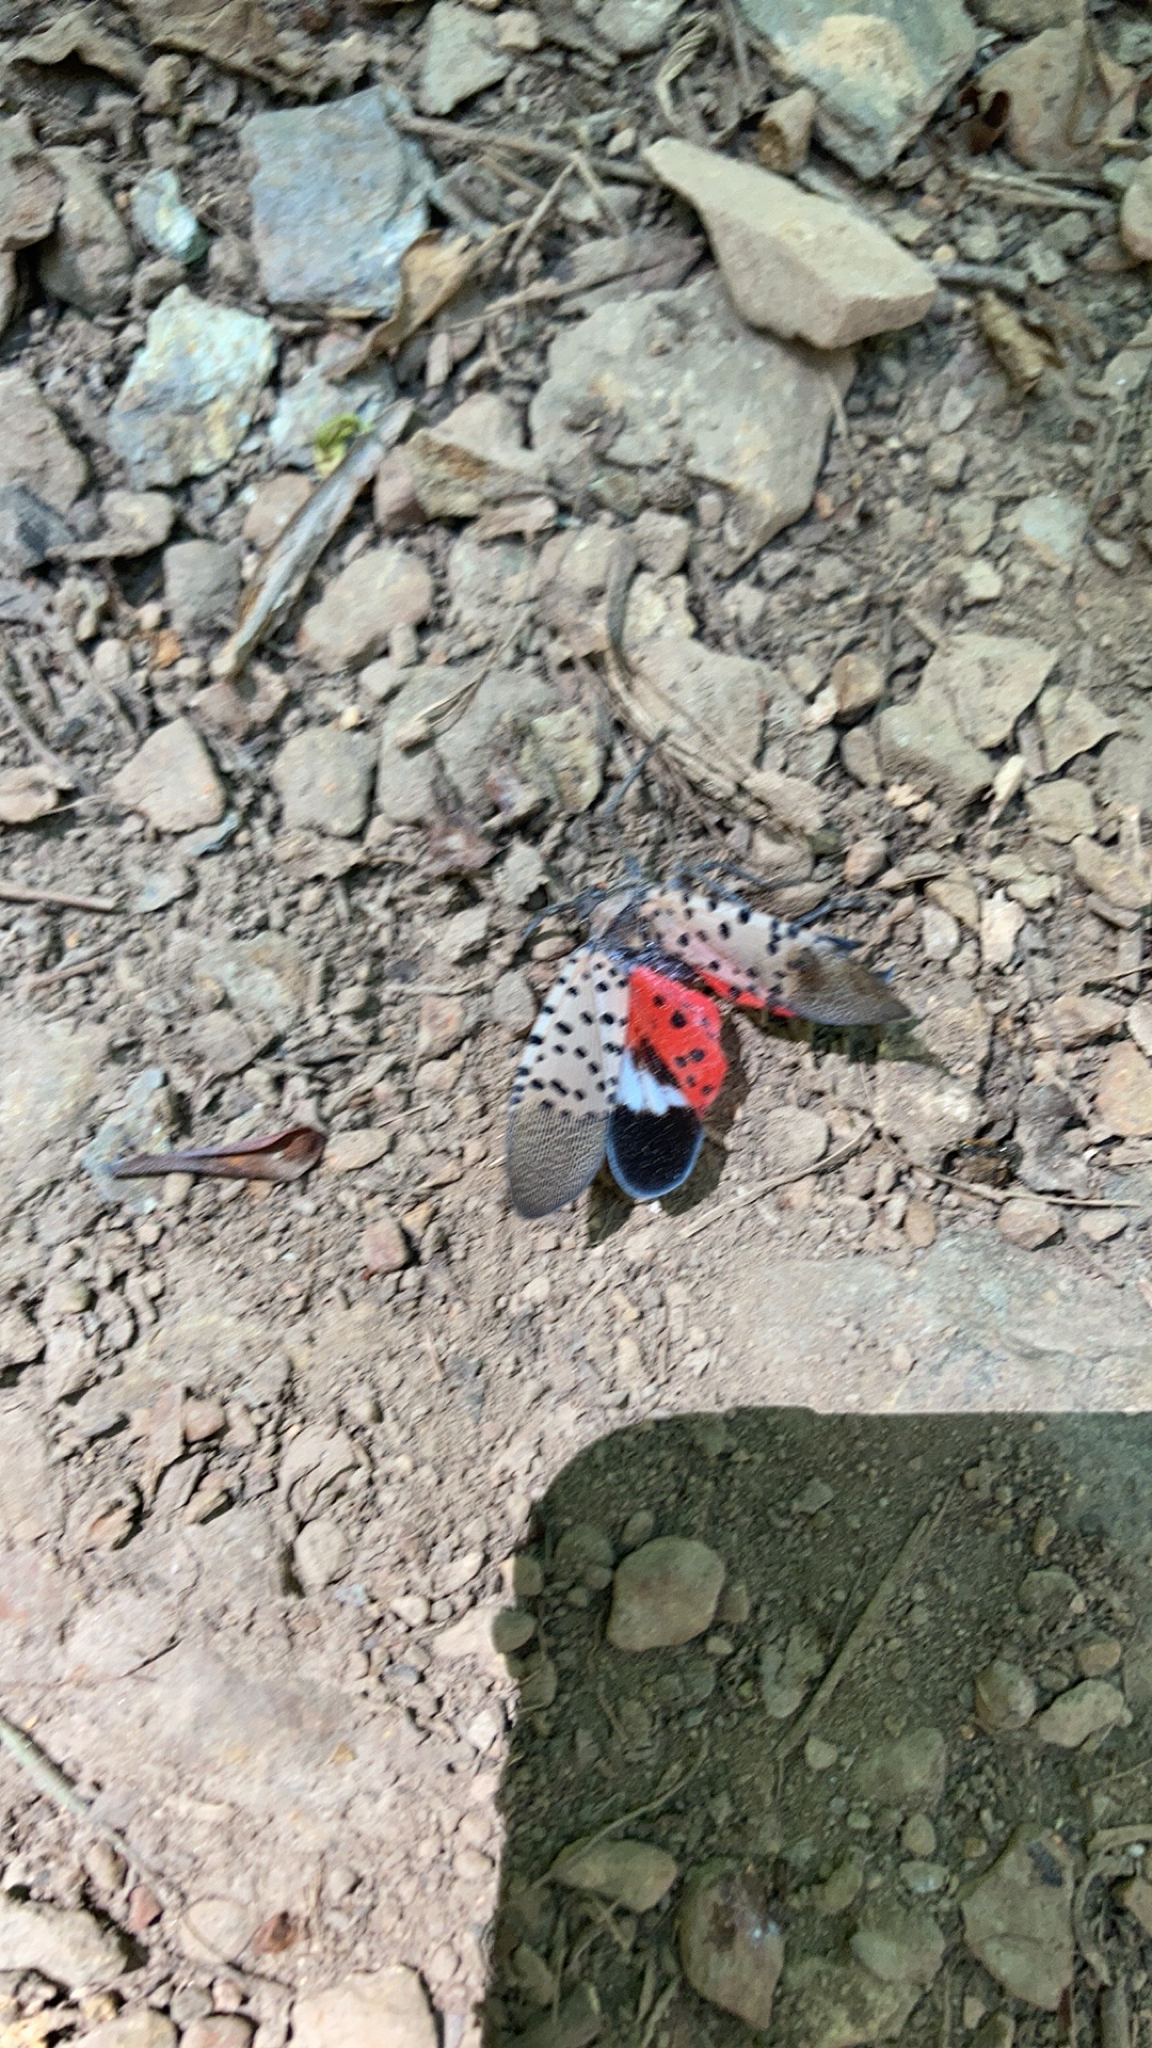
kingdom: Animalia
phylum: Arthropoda
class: Insecta
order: Hemiptera
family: Fulgoridae
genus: Lycorma
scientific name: Lycorma delicatula
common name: Spotted lanternfly
